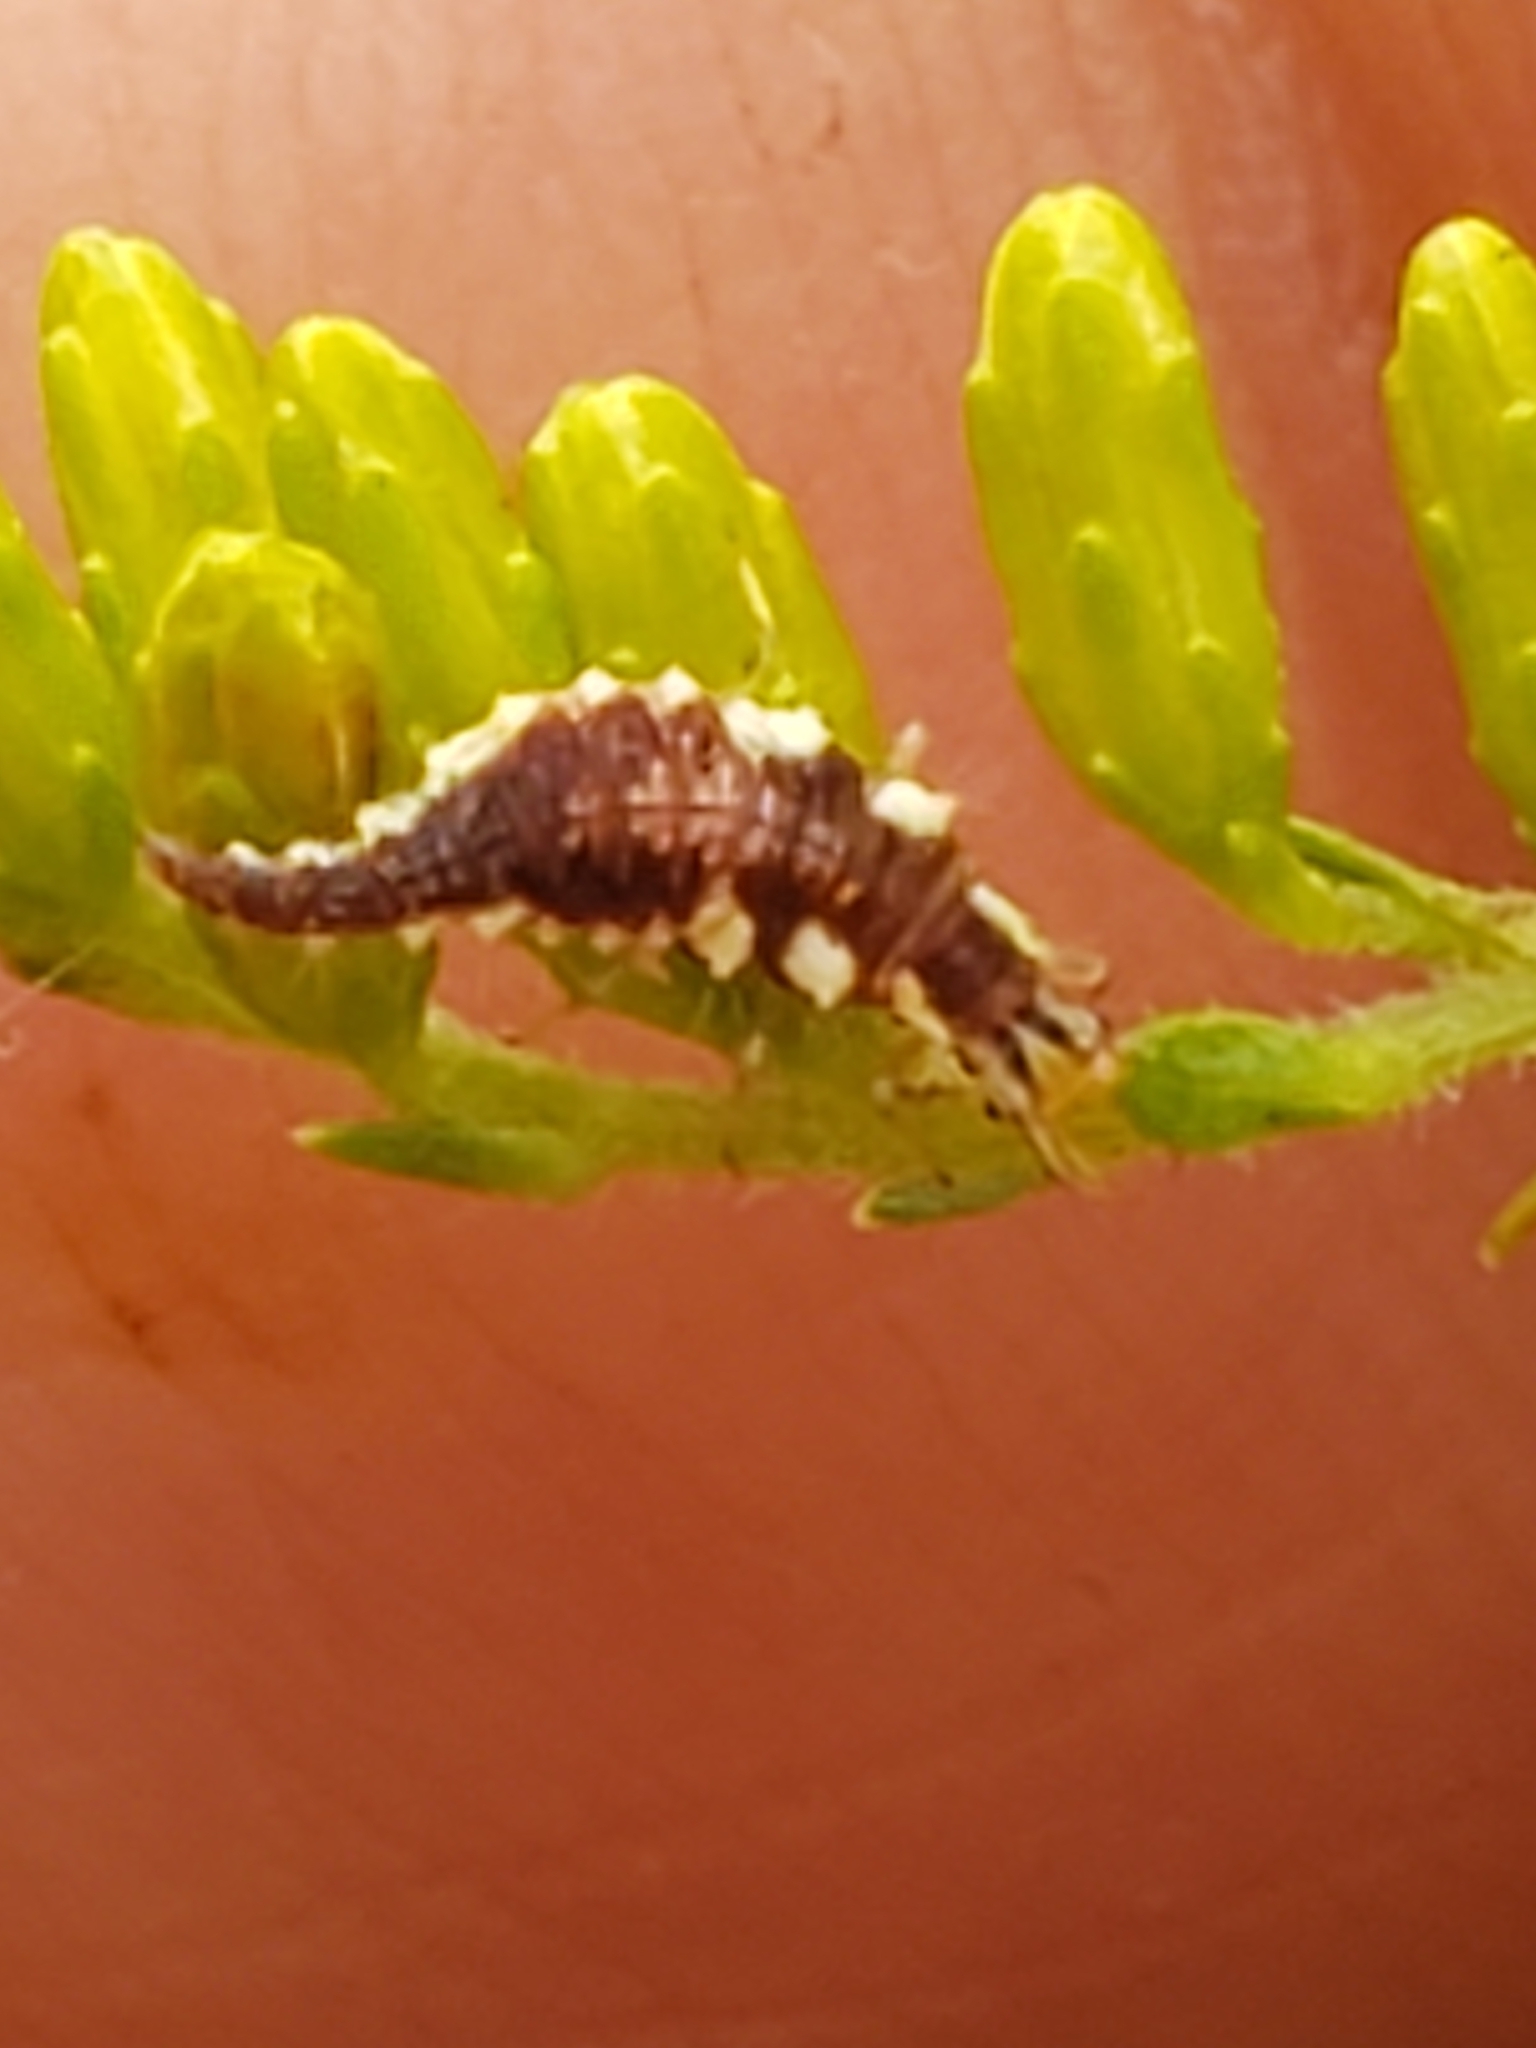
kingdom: Animalia
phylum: Arthropoda
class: Insecta
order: Neuroptera
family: Chrysopidae
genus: Chrysoperla
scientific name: Chrysoperla rufilabris
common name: Red-lipped green lacewing
